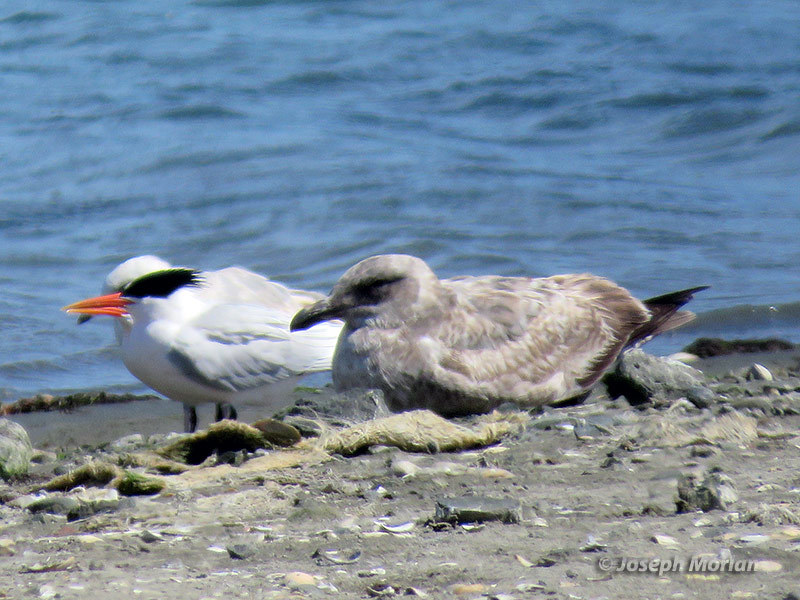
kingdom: Animalia
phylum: Chordata
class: Aves
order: Charadriiformes
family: Laridae
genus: Larus
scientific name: Larus occidentalis
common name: Western gull
